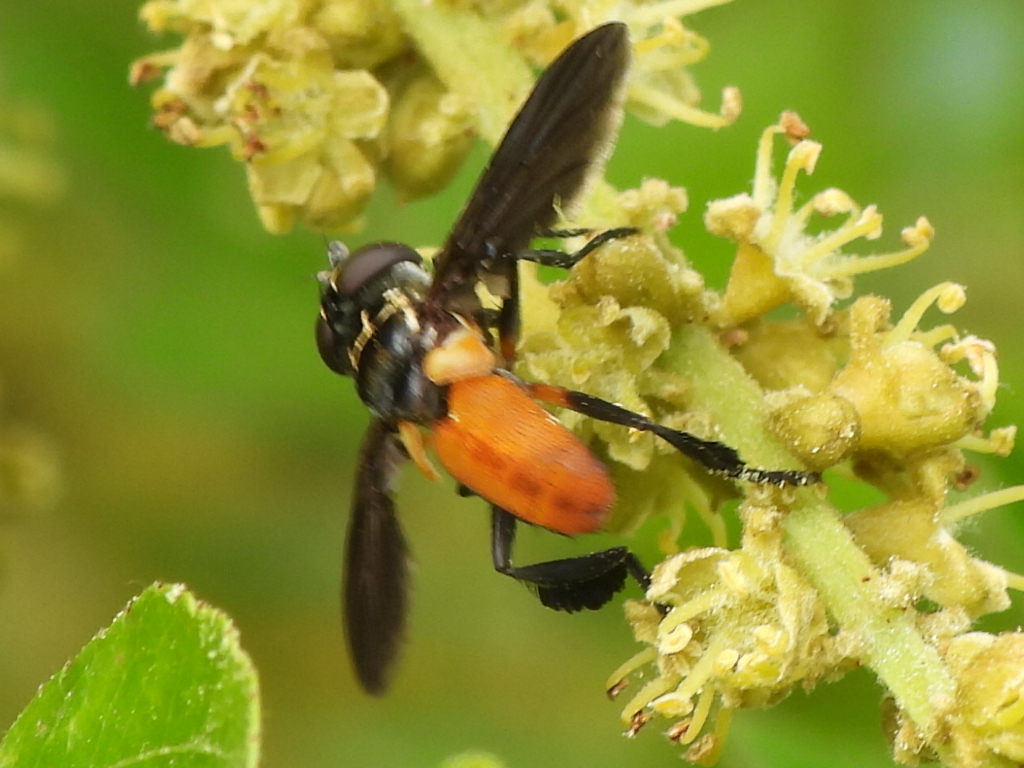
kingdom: Animalia
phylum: Arthropoda
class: Insecta
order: Diptera
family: Tachinidae
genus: Trichopoda
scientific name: Trichopoda pennipes
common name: Tachinid fly
